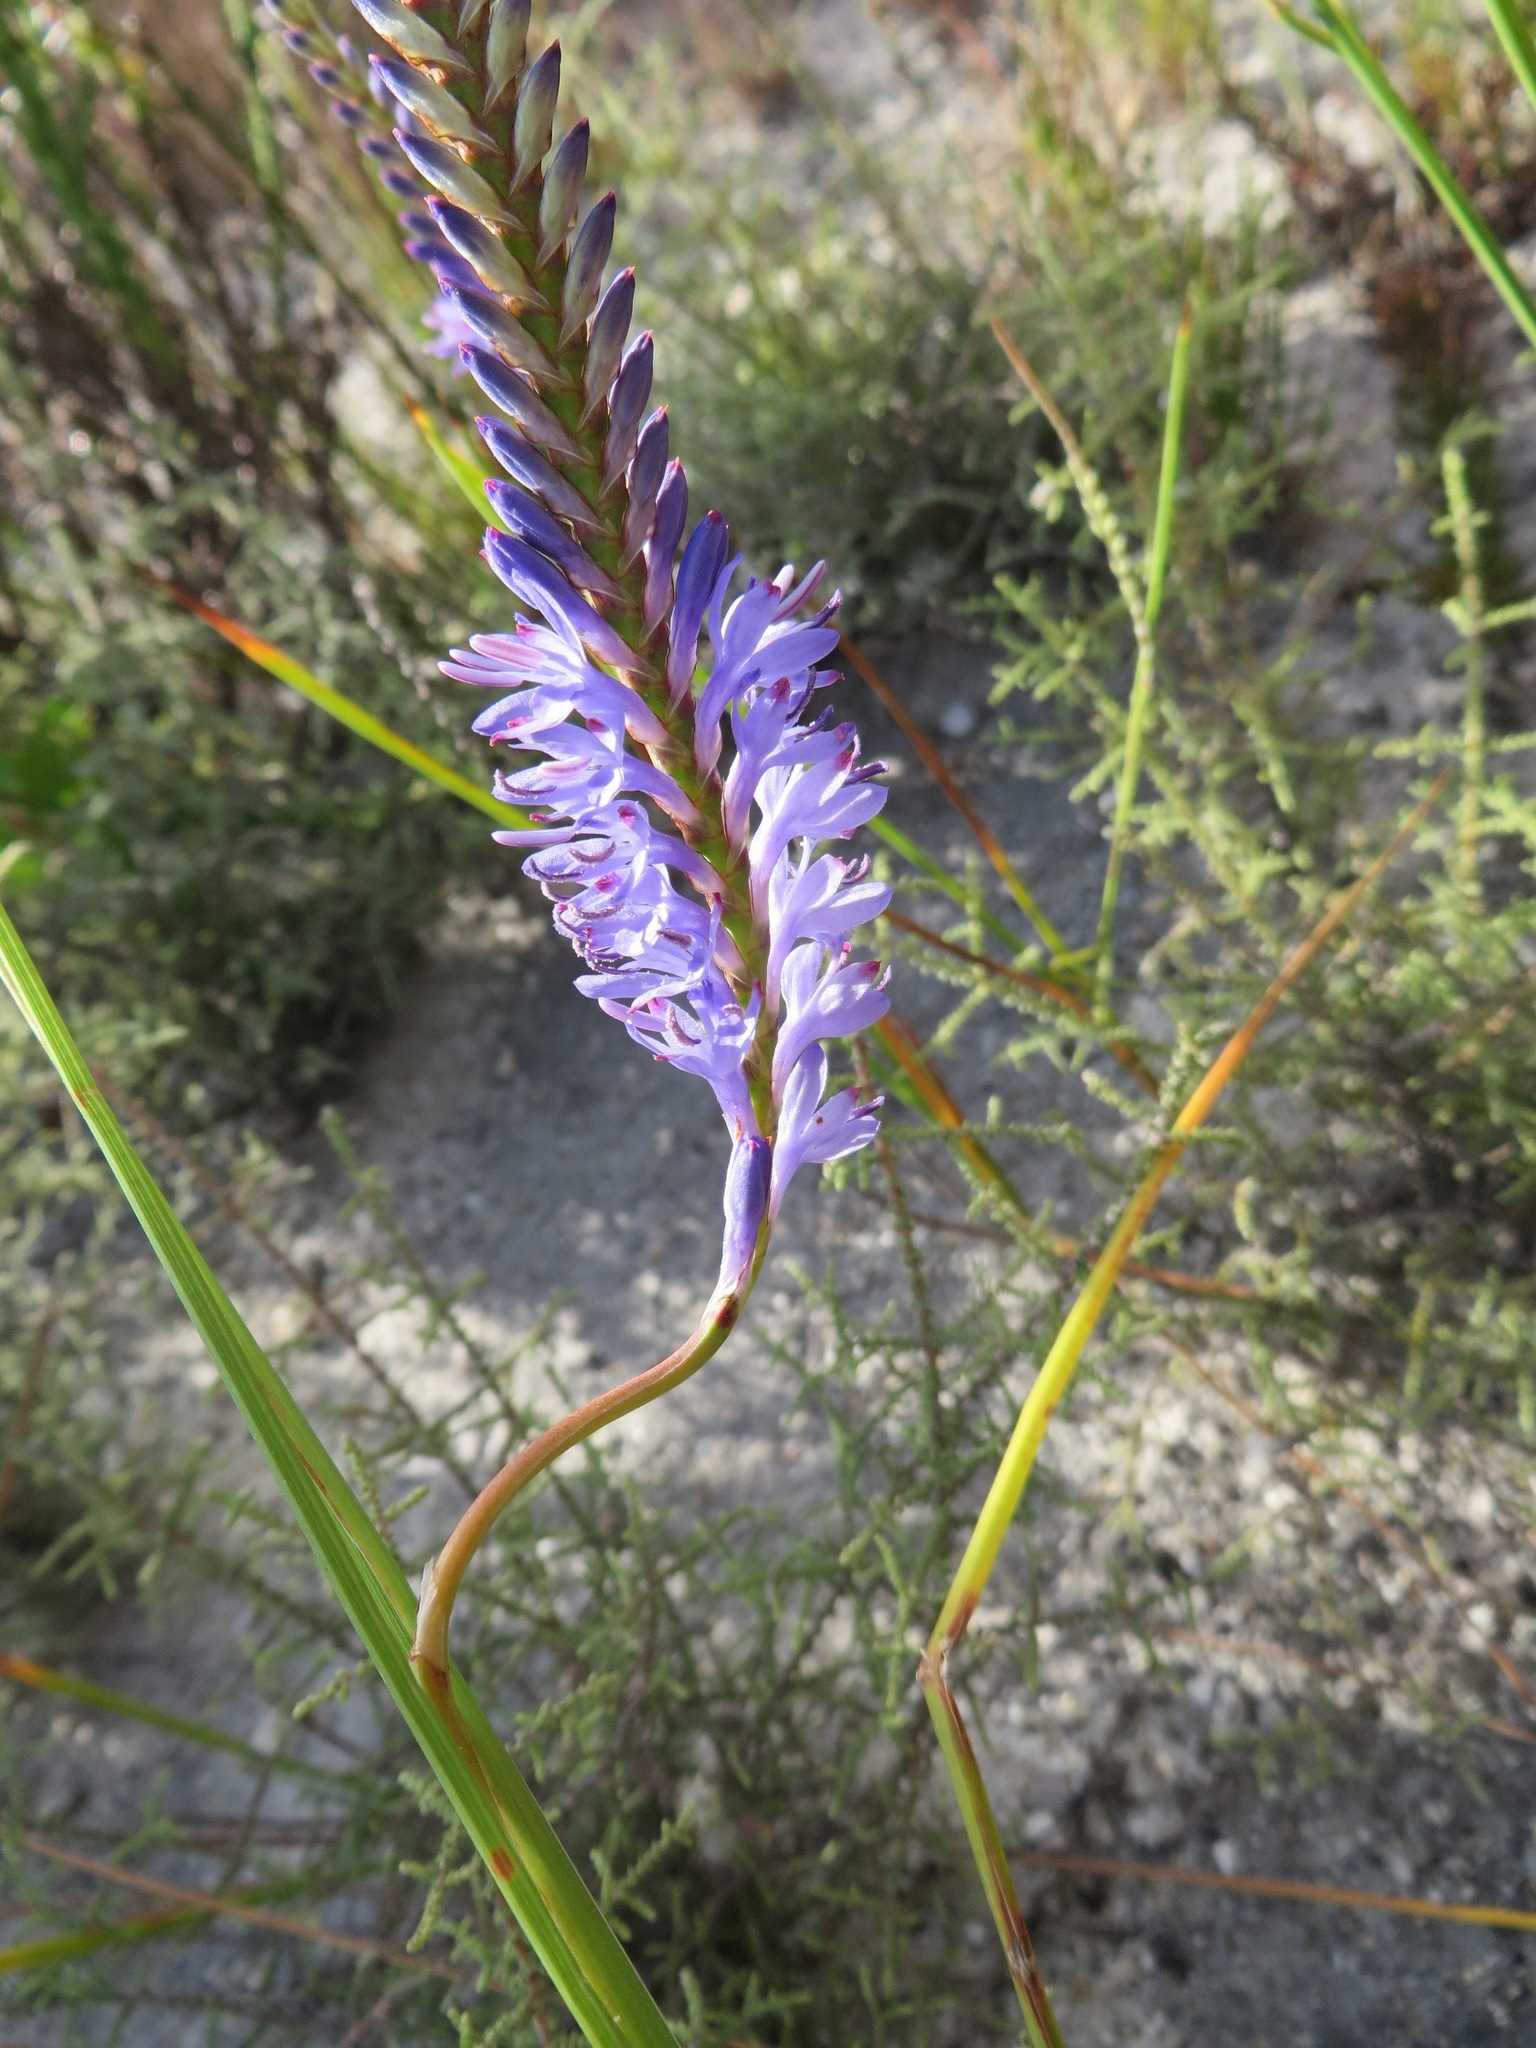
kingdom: Plantae
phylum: Tracheophyta
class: Liliopsida
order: Asparagales
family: Iridaceae
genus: Micranthus
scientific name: Micranthus plantagineus
